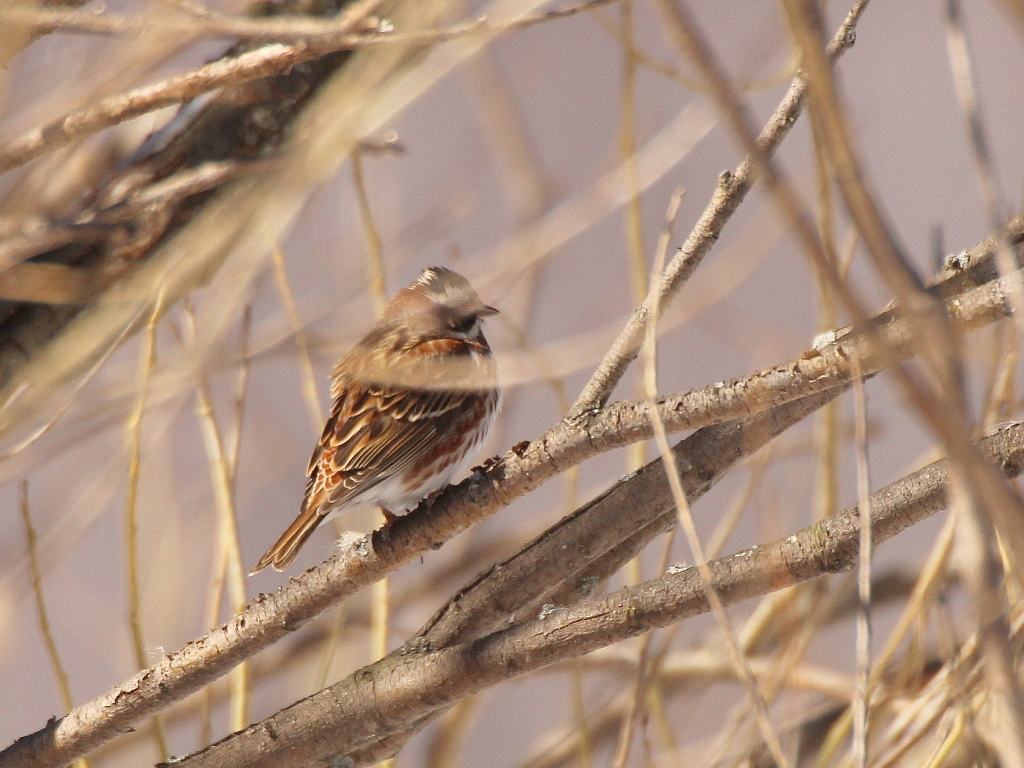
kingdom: Animalia
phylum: Chordata
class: Aves
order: Passeriformes
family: Emberizidae
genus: Emberiza
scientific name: Emberiza rustica
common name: Rustic bunting
